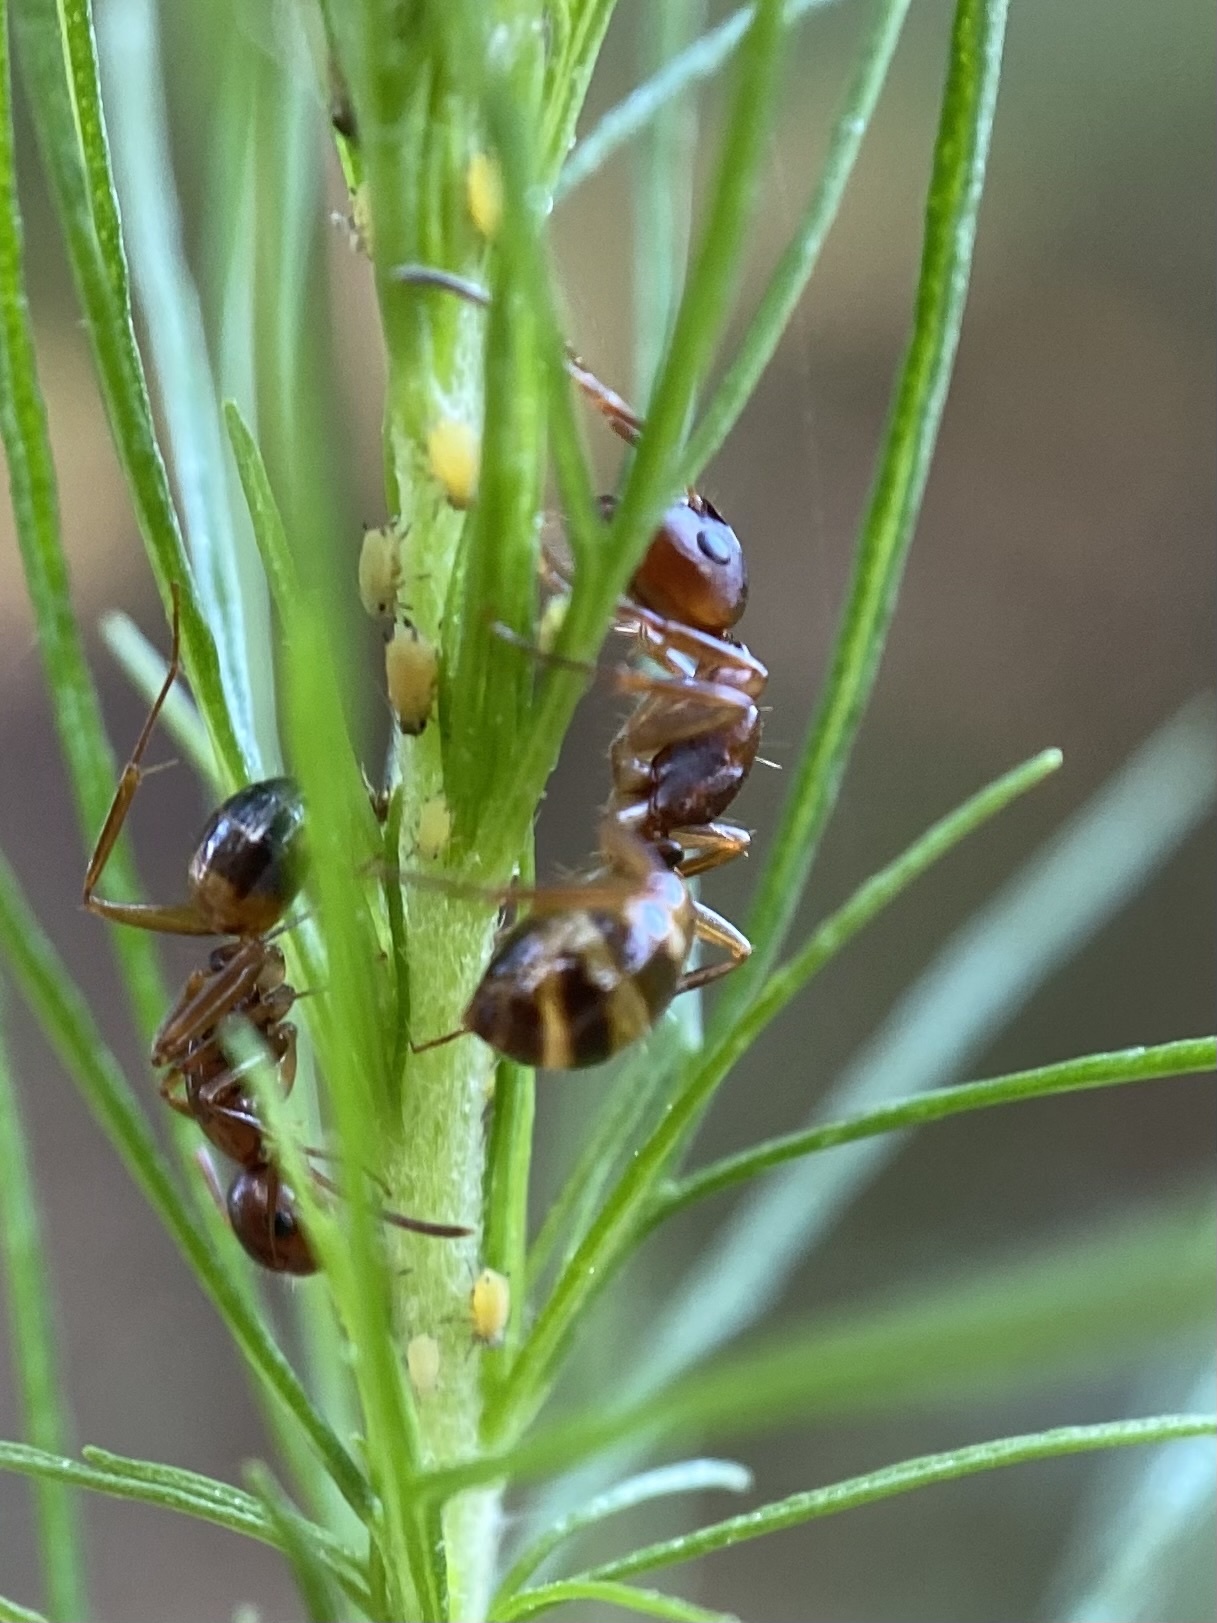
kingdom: Animalia
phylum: Arthropoda
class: Insecta
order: Hymenoptera
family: Formicidae
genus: Camponotus
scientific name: Camponotus subbarbatus
